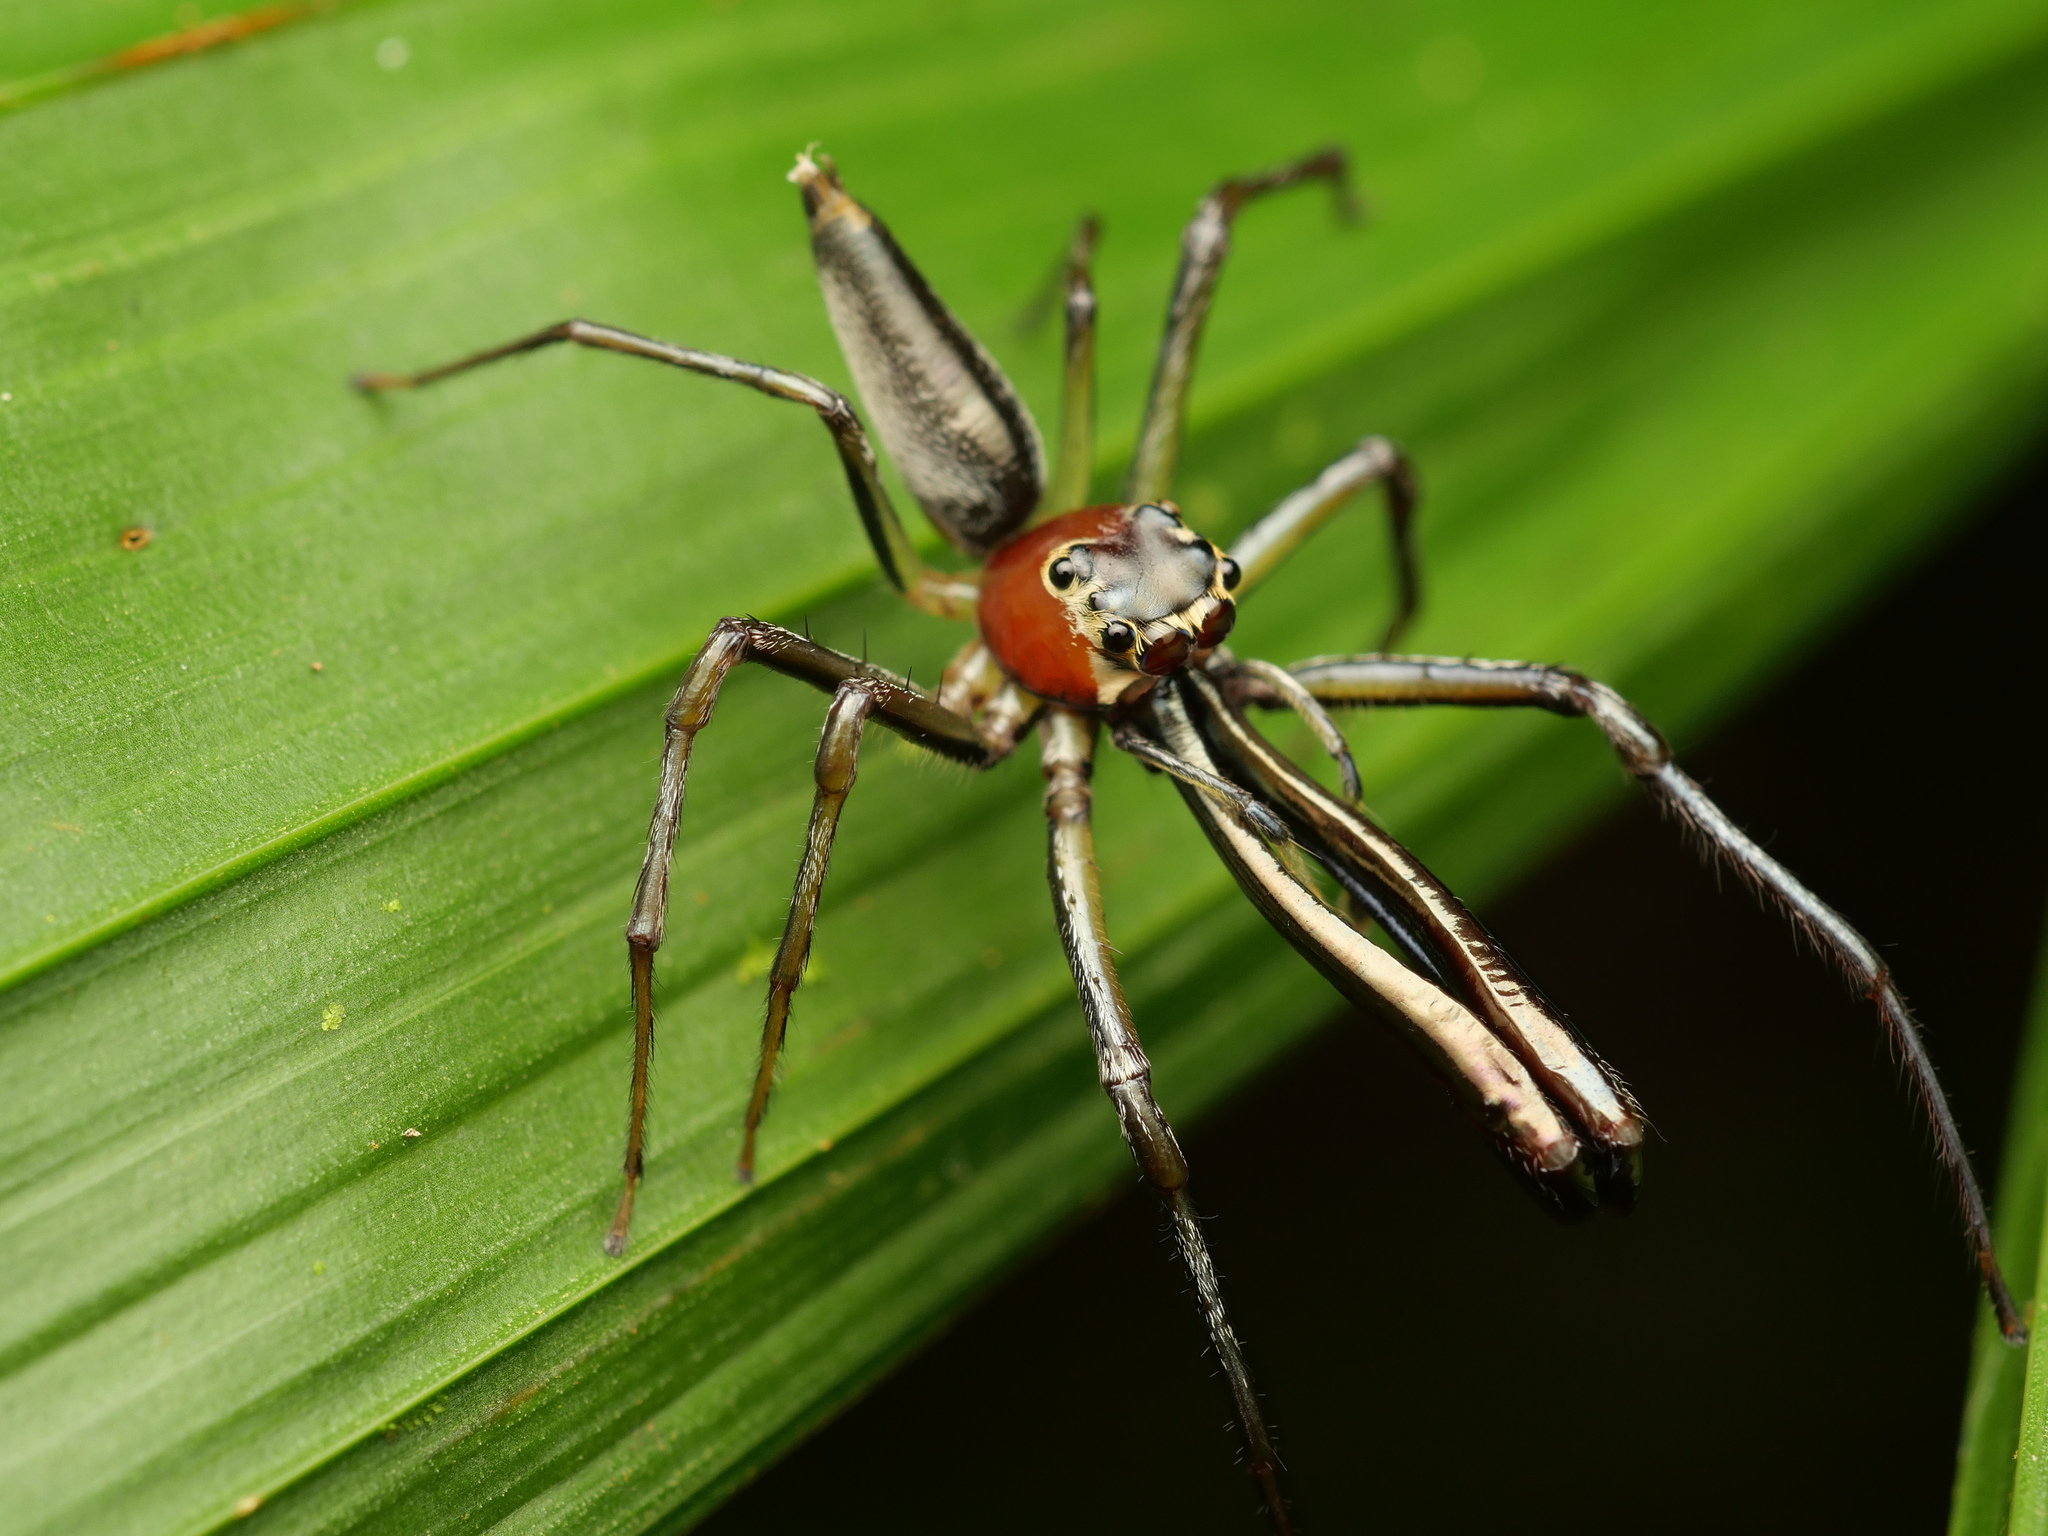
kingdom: Animalia
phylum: Arthropoda
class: Arachnida
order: Araneae
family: Salticidae
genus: Bathippus
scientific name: Bathippus
